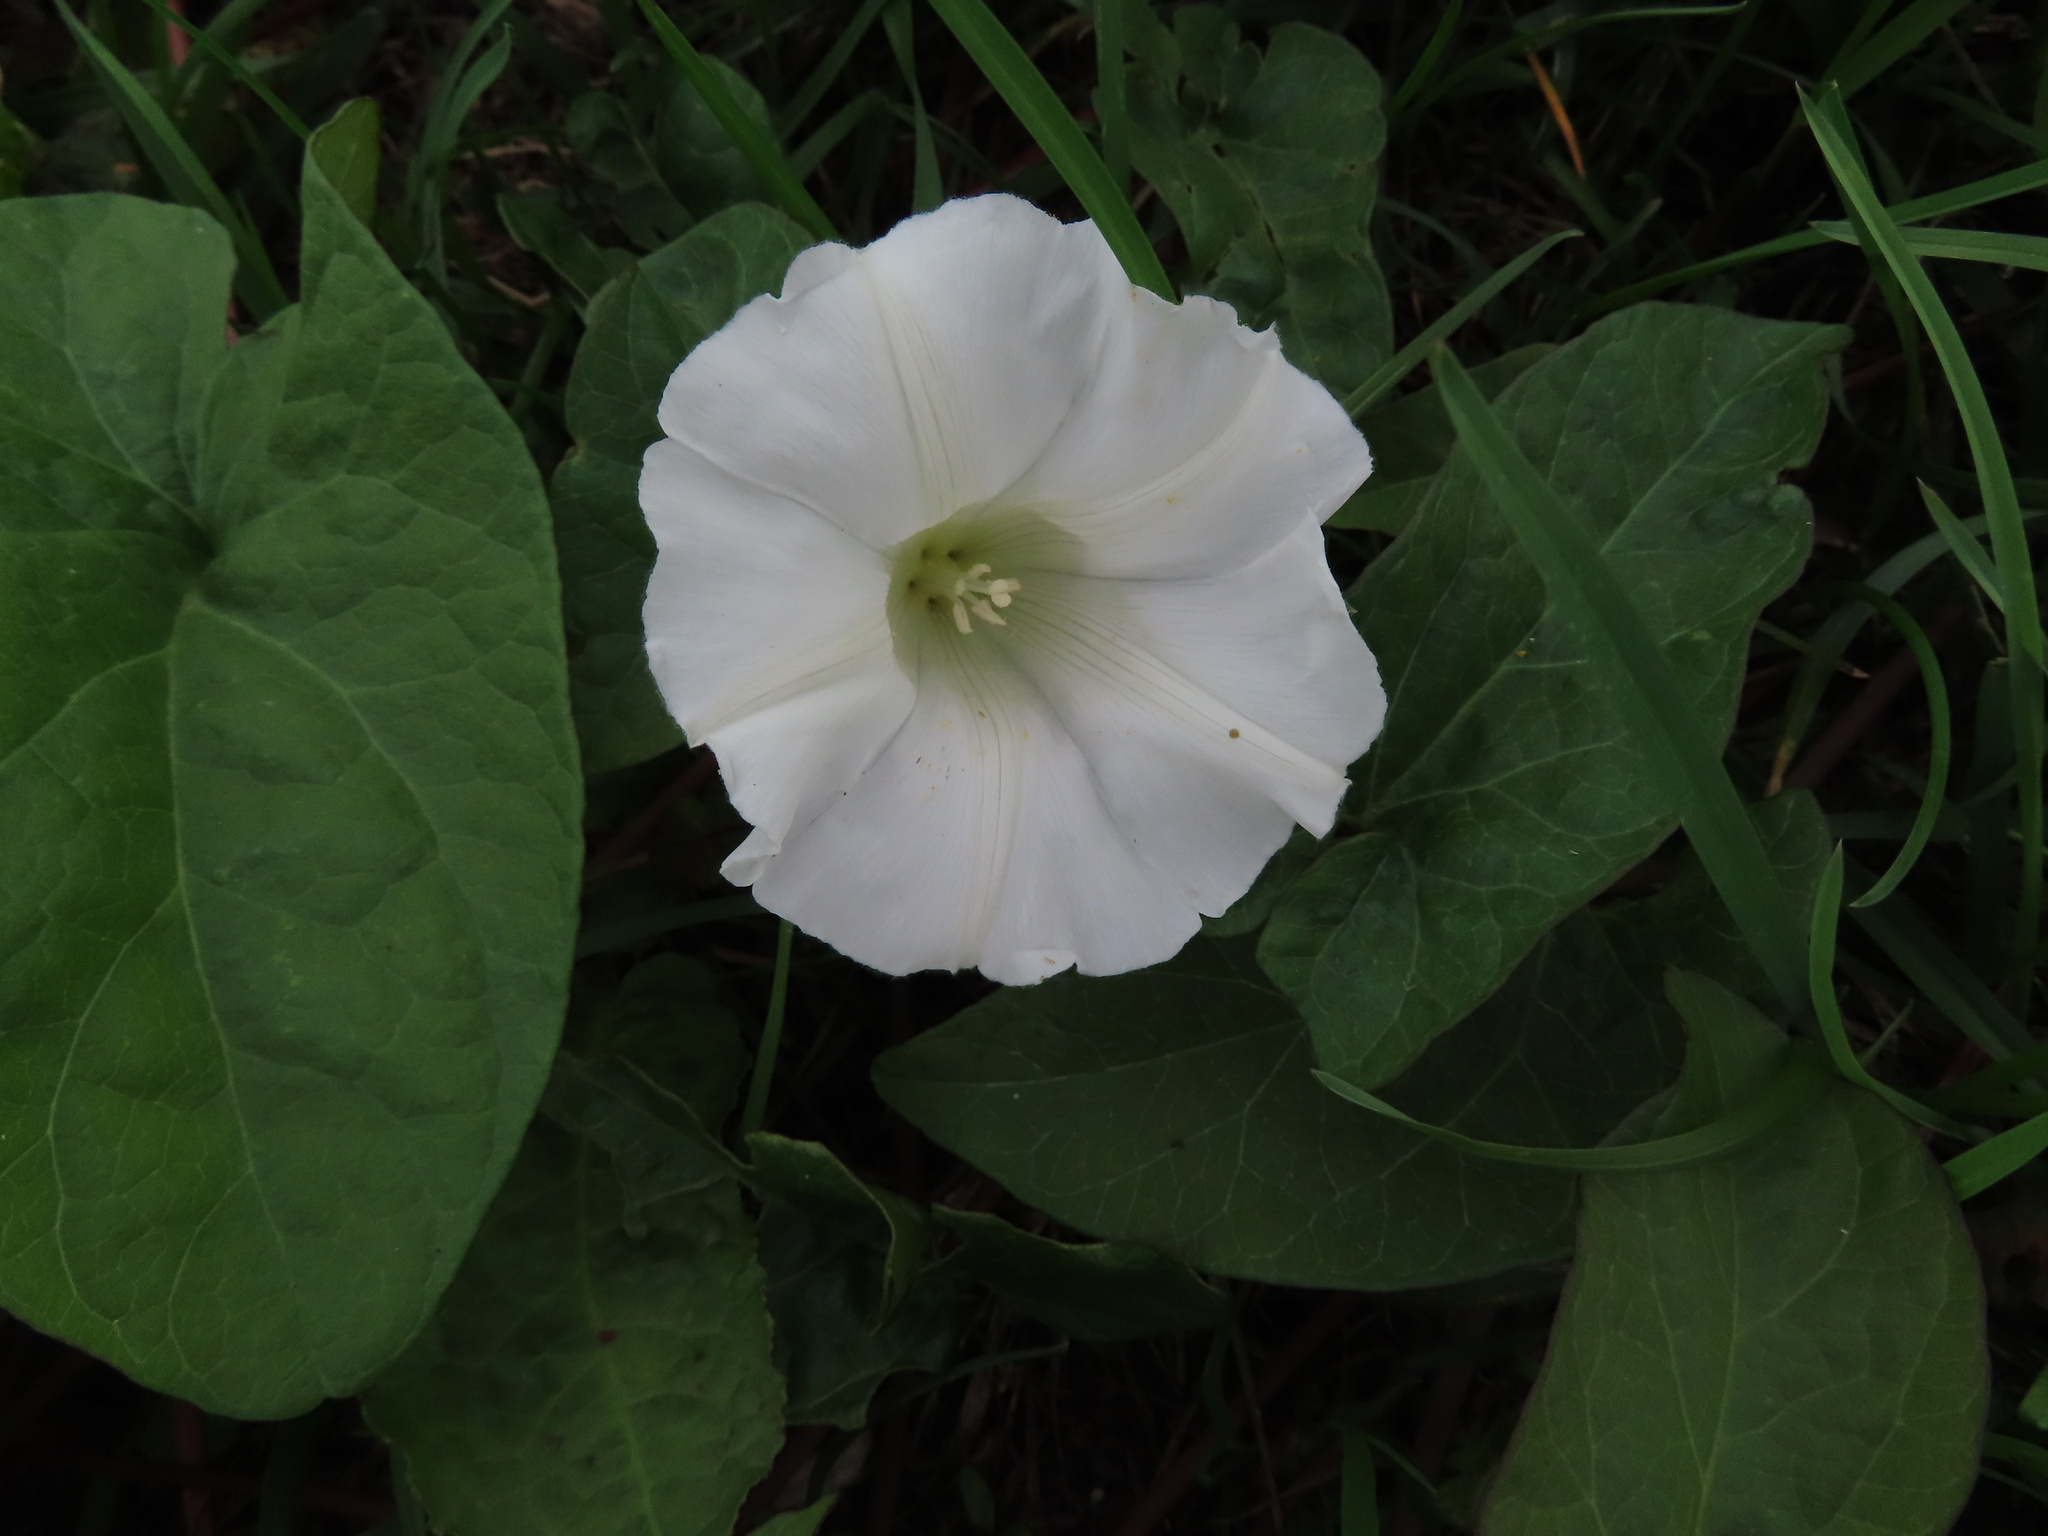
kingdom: Plantae
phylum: Tracheophyta
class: Magnoliopsida
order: Solanales
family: Convolvulaceae
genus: Calystegia
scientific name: Calystegia
